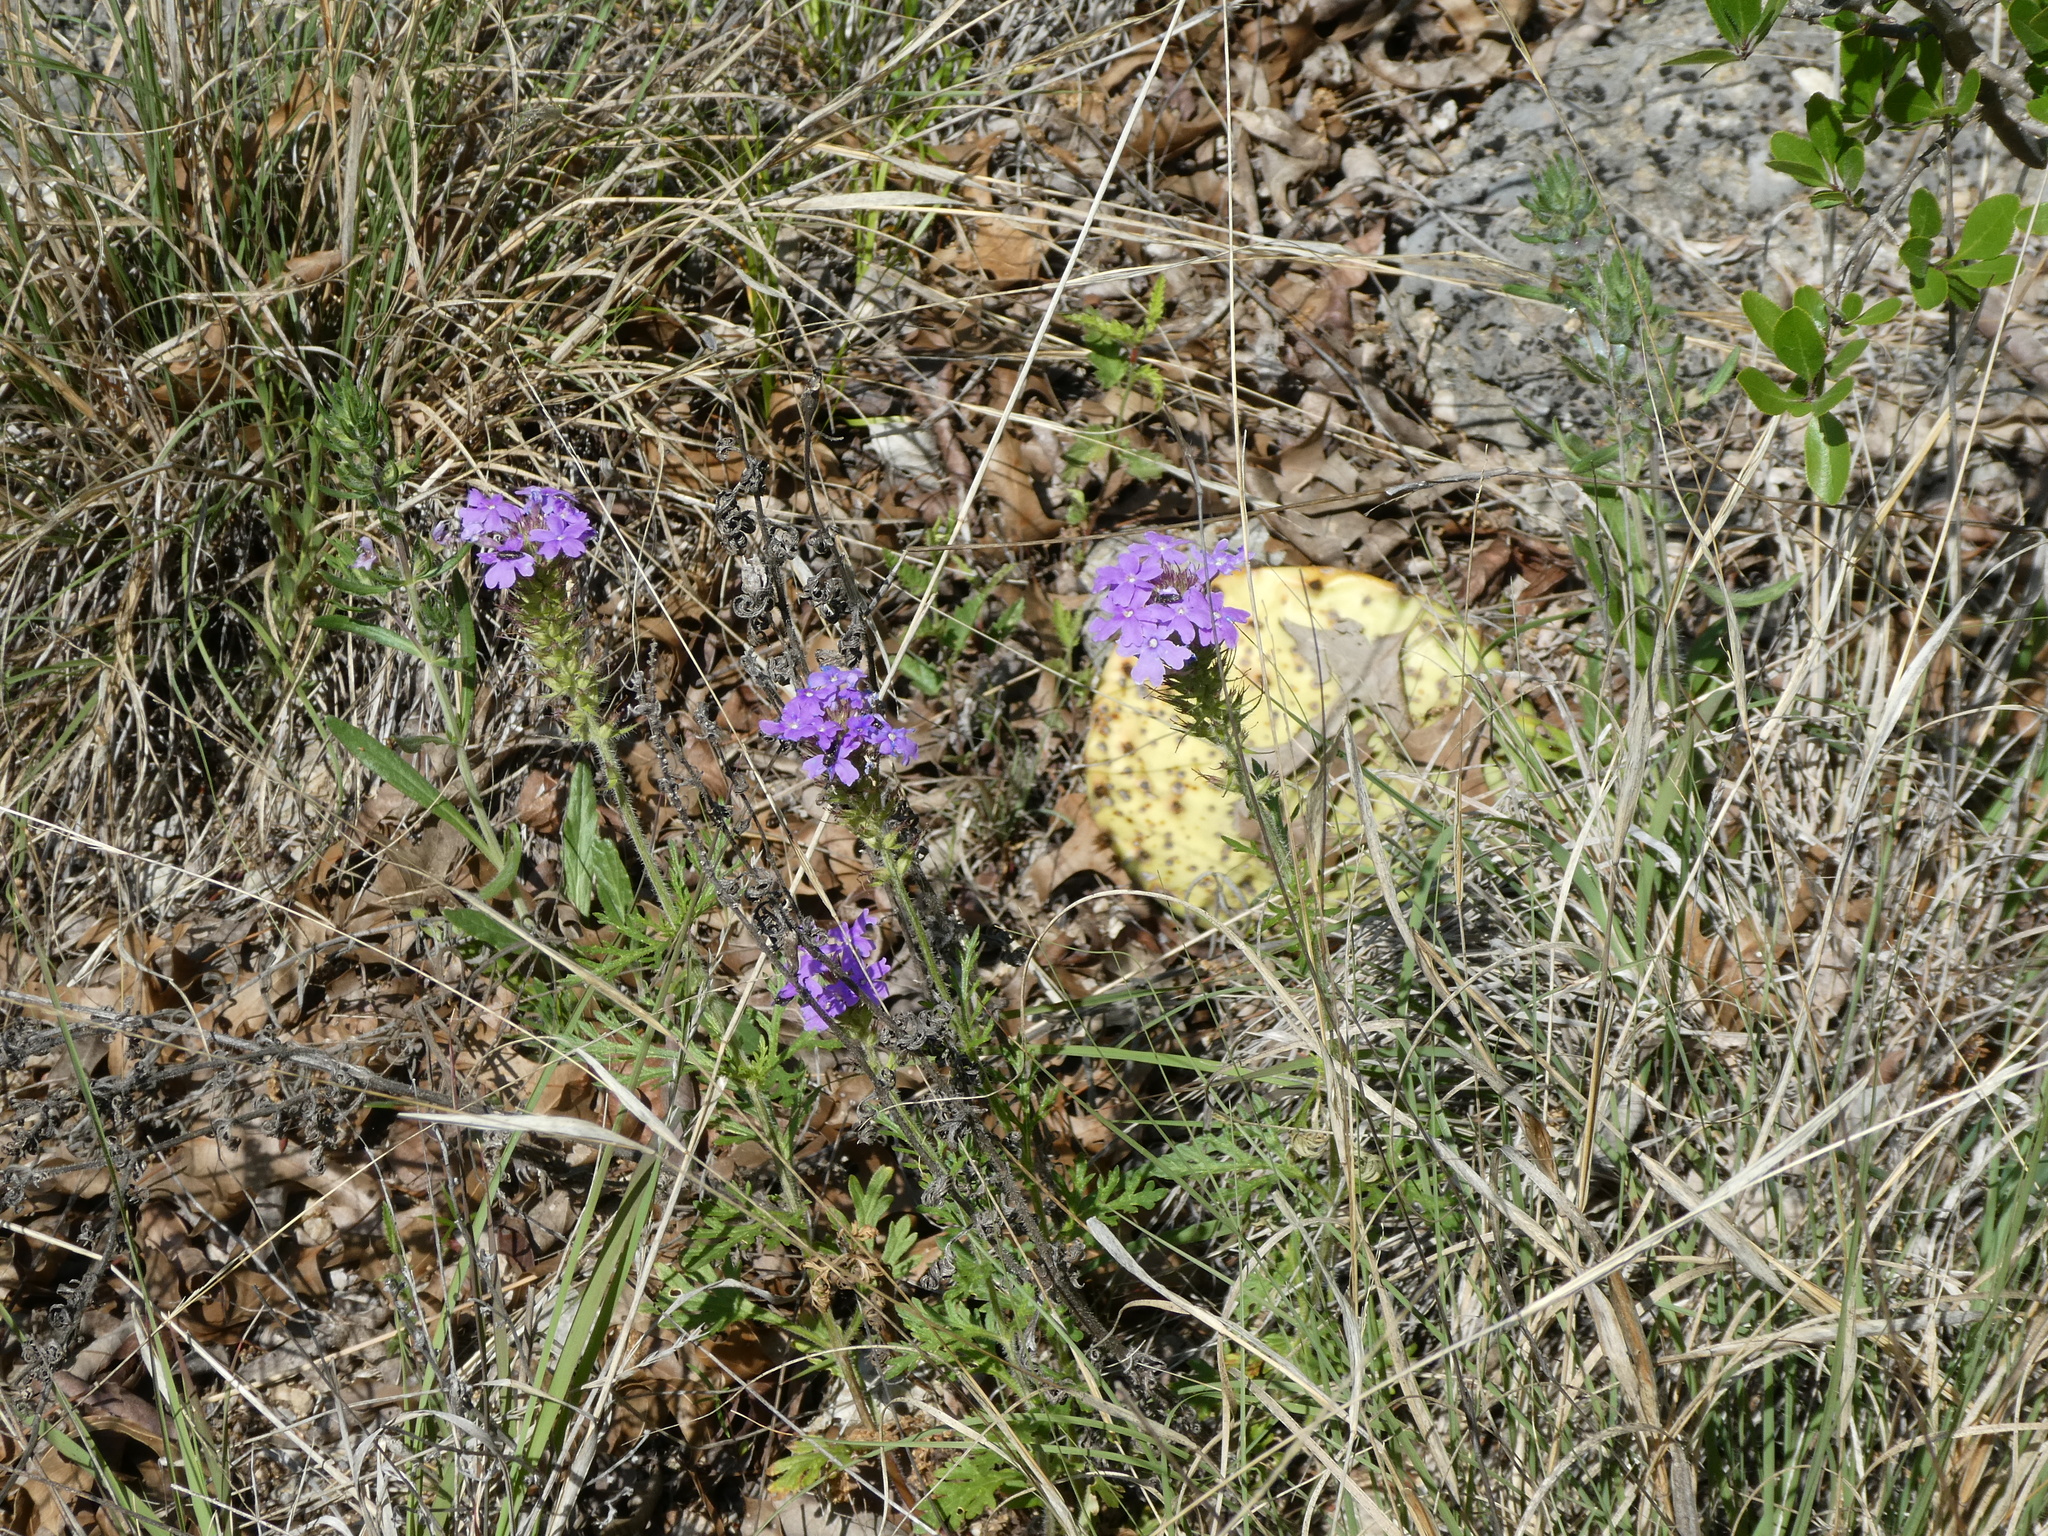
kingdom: Plantae
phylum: Tracheophyta
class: Magnoliopsida
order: Lamiales
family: Verbenaceae
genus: Verbena
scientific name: Verbena bipinnatifida
